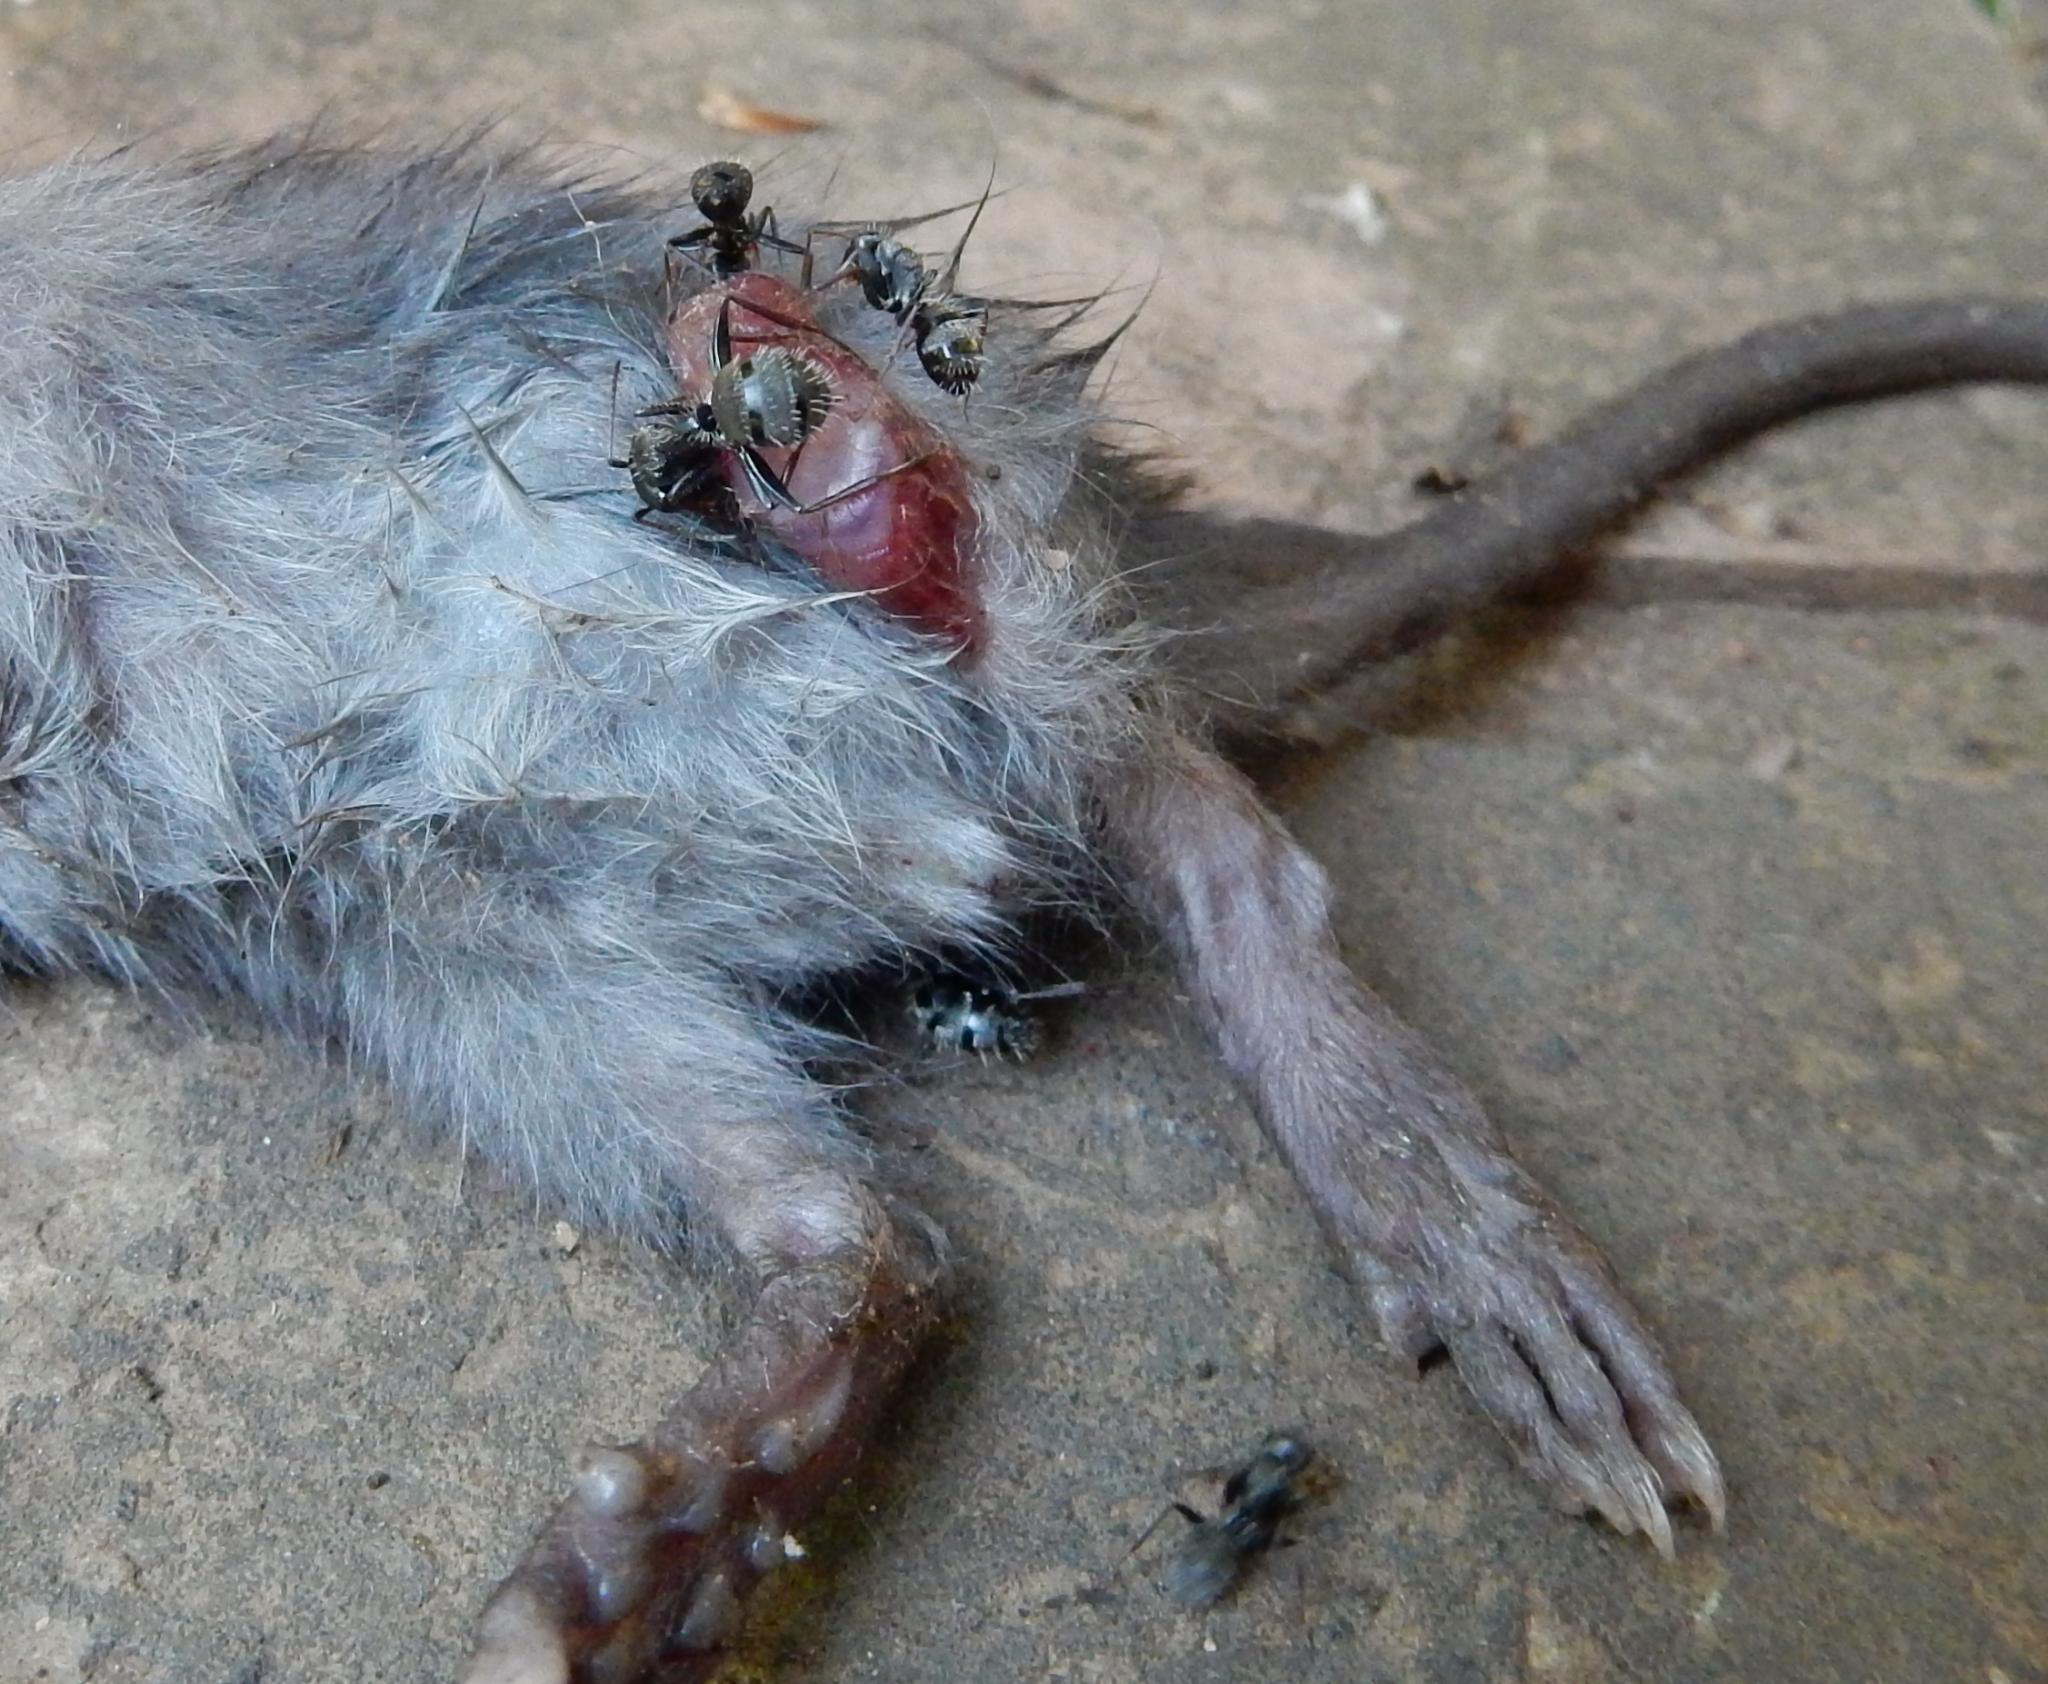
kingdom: Animalia
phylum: Arthropoda
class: Insecta
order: Hymenoptera
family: Formicidae
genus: Camponotus
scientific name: Camponotus auropubens
